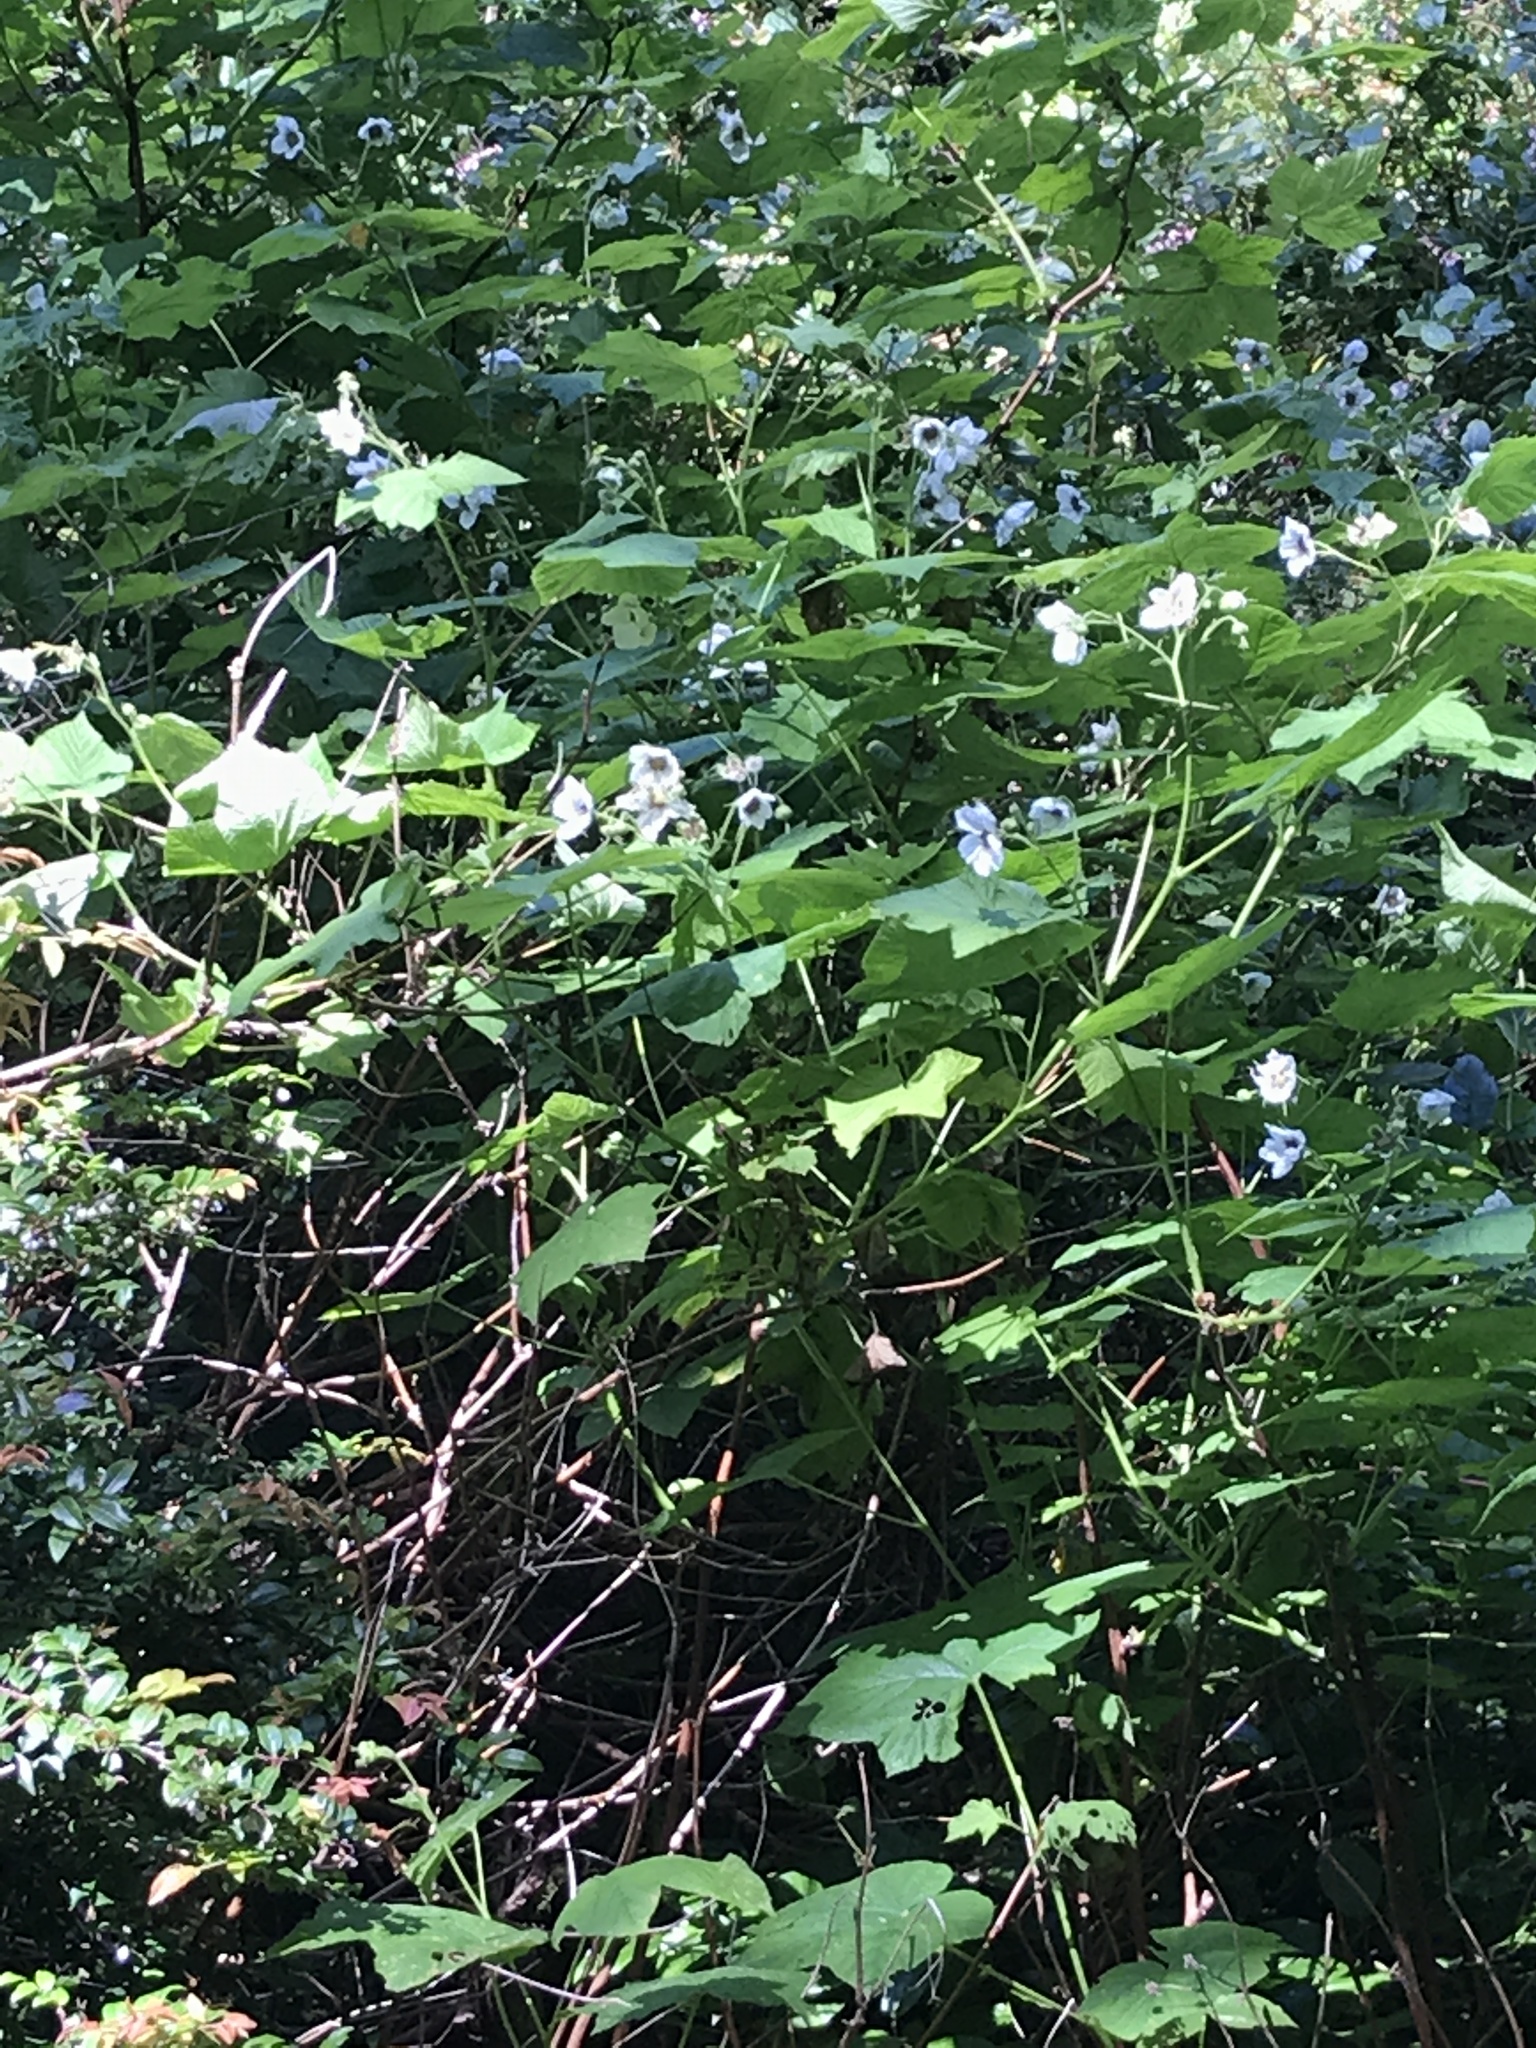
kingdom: Plantae
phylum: Tracheophyta
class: Magnoliopsida
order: Rosales
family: Rosaceae
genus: Rubus
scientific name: Rubus parviflorus
